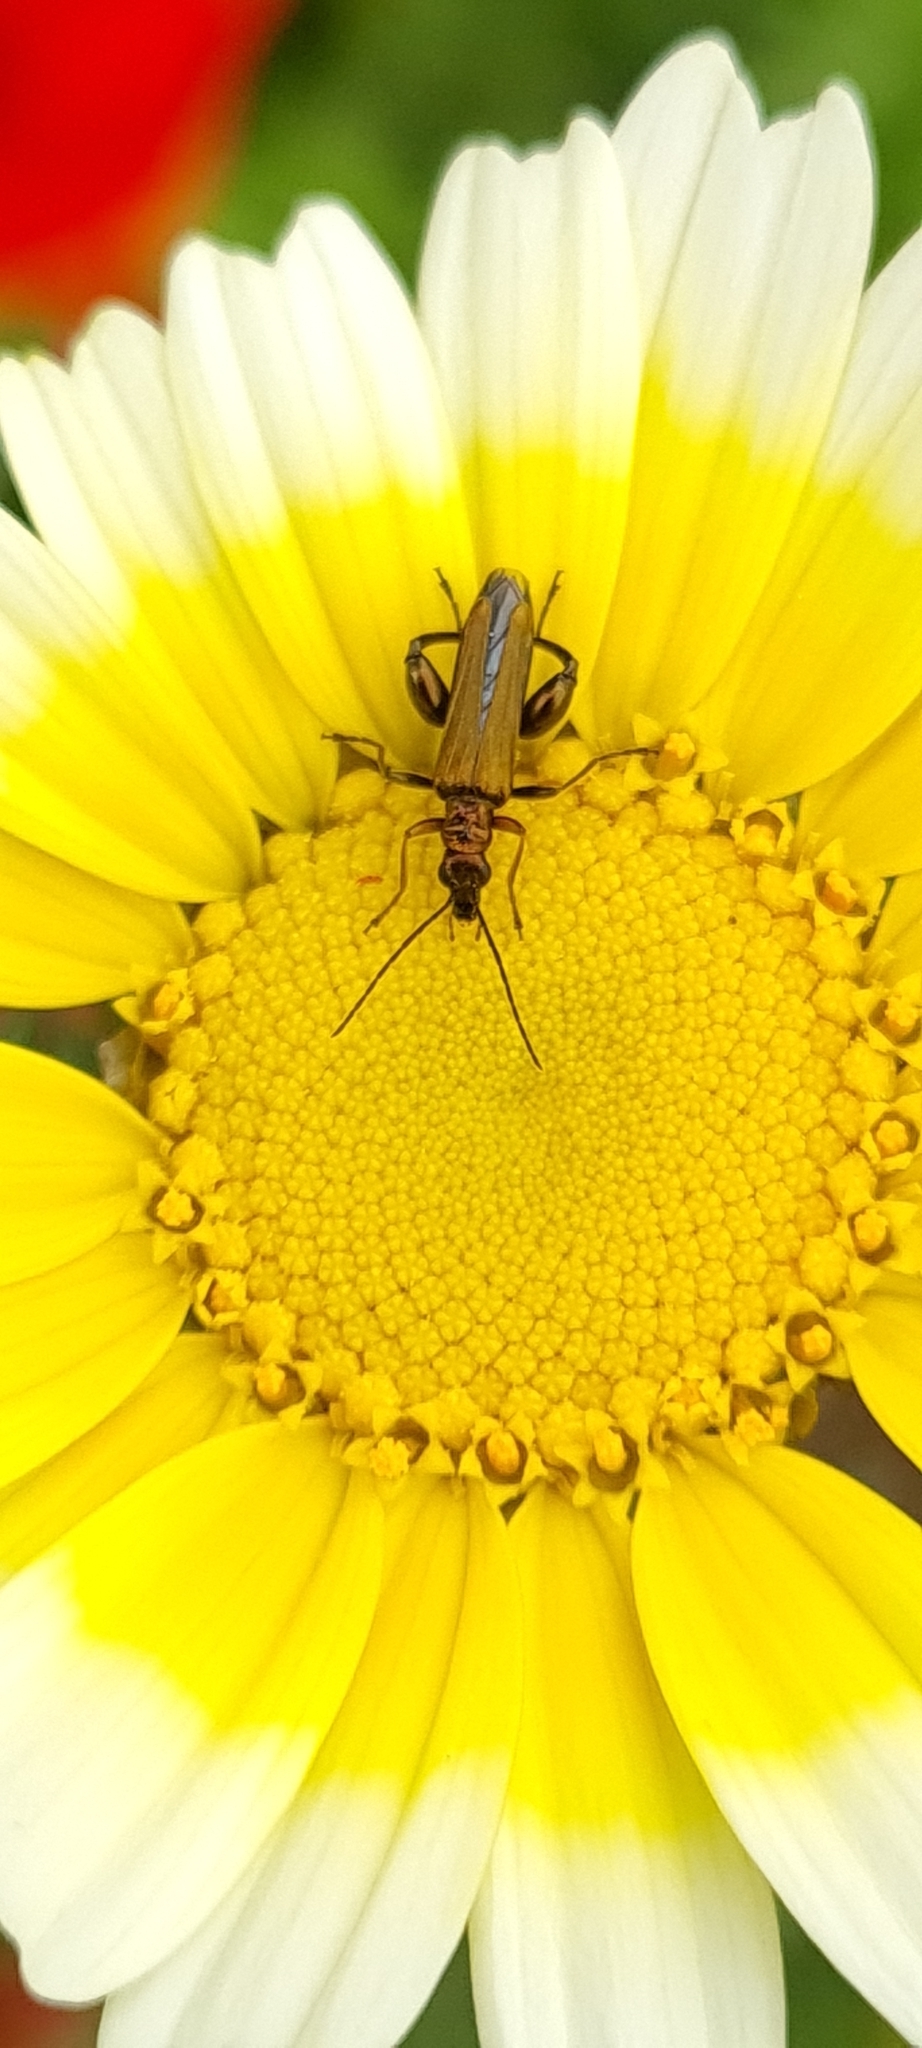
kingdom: Animalia
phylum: Arthropoda
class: Insecta
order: Coleoptera
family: Oedemeridae
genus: Oedemera
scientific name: Oedemera flavipes
